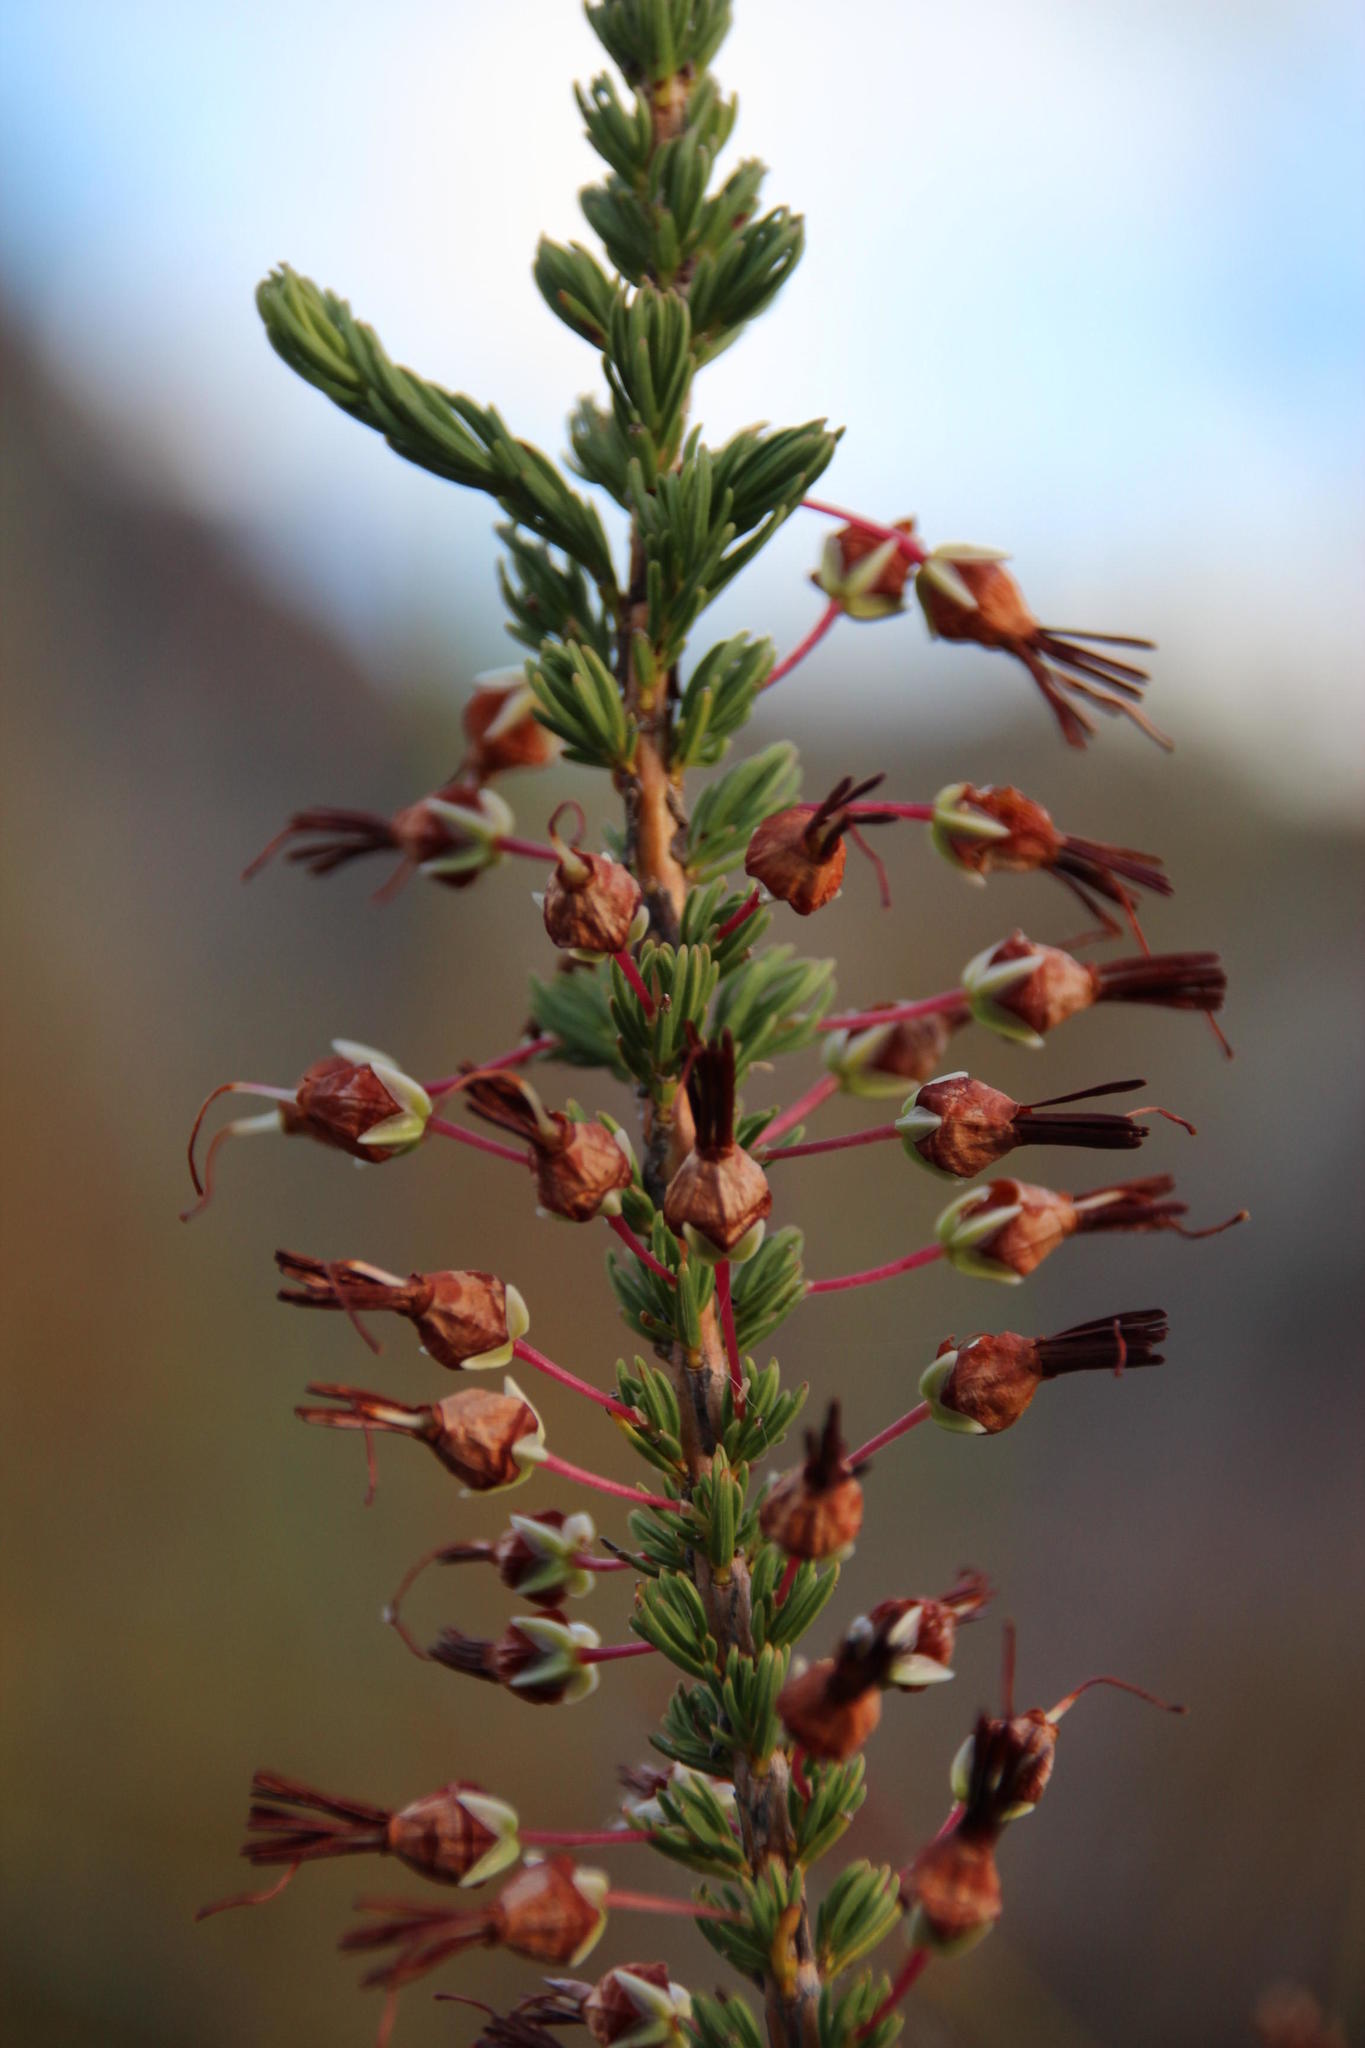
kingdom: Plantae
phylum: Tracheophyta
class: Magnoliopsida
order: Ericales
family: Ericaceae
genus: Erica
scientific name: Erica plukenetii
